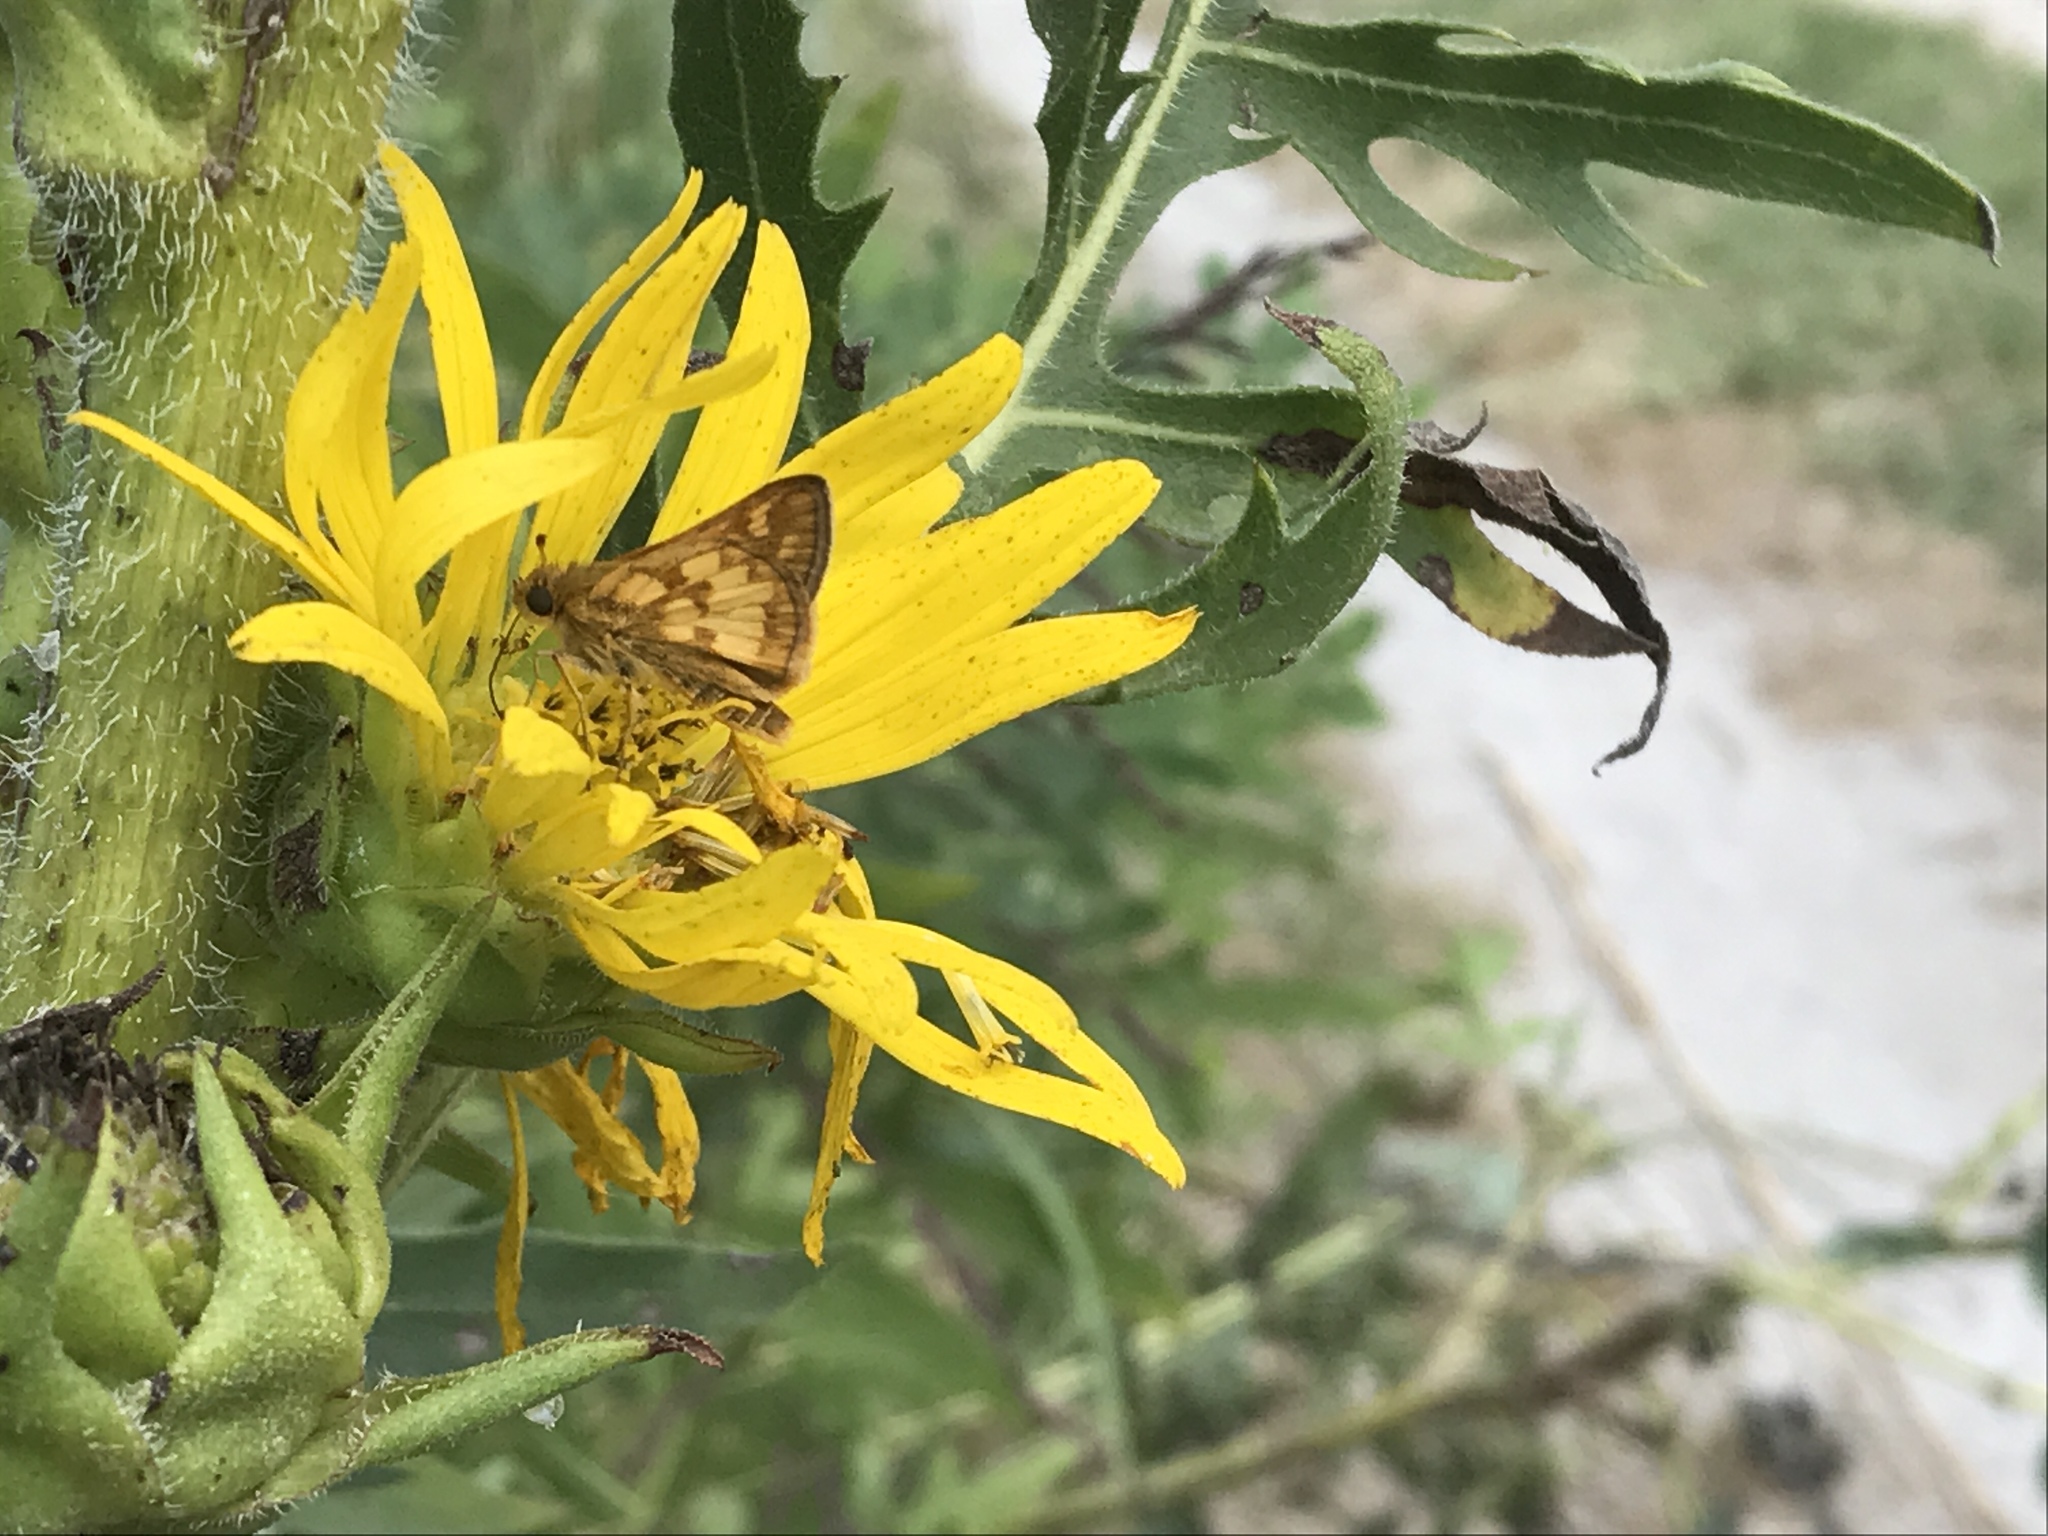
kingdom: Animalia
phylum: Arthropoda
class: Insecta
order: Lepidoptera
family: Hesperiidae
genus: Polites
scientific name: Polites coras
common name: Peck's skipper
